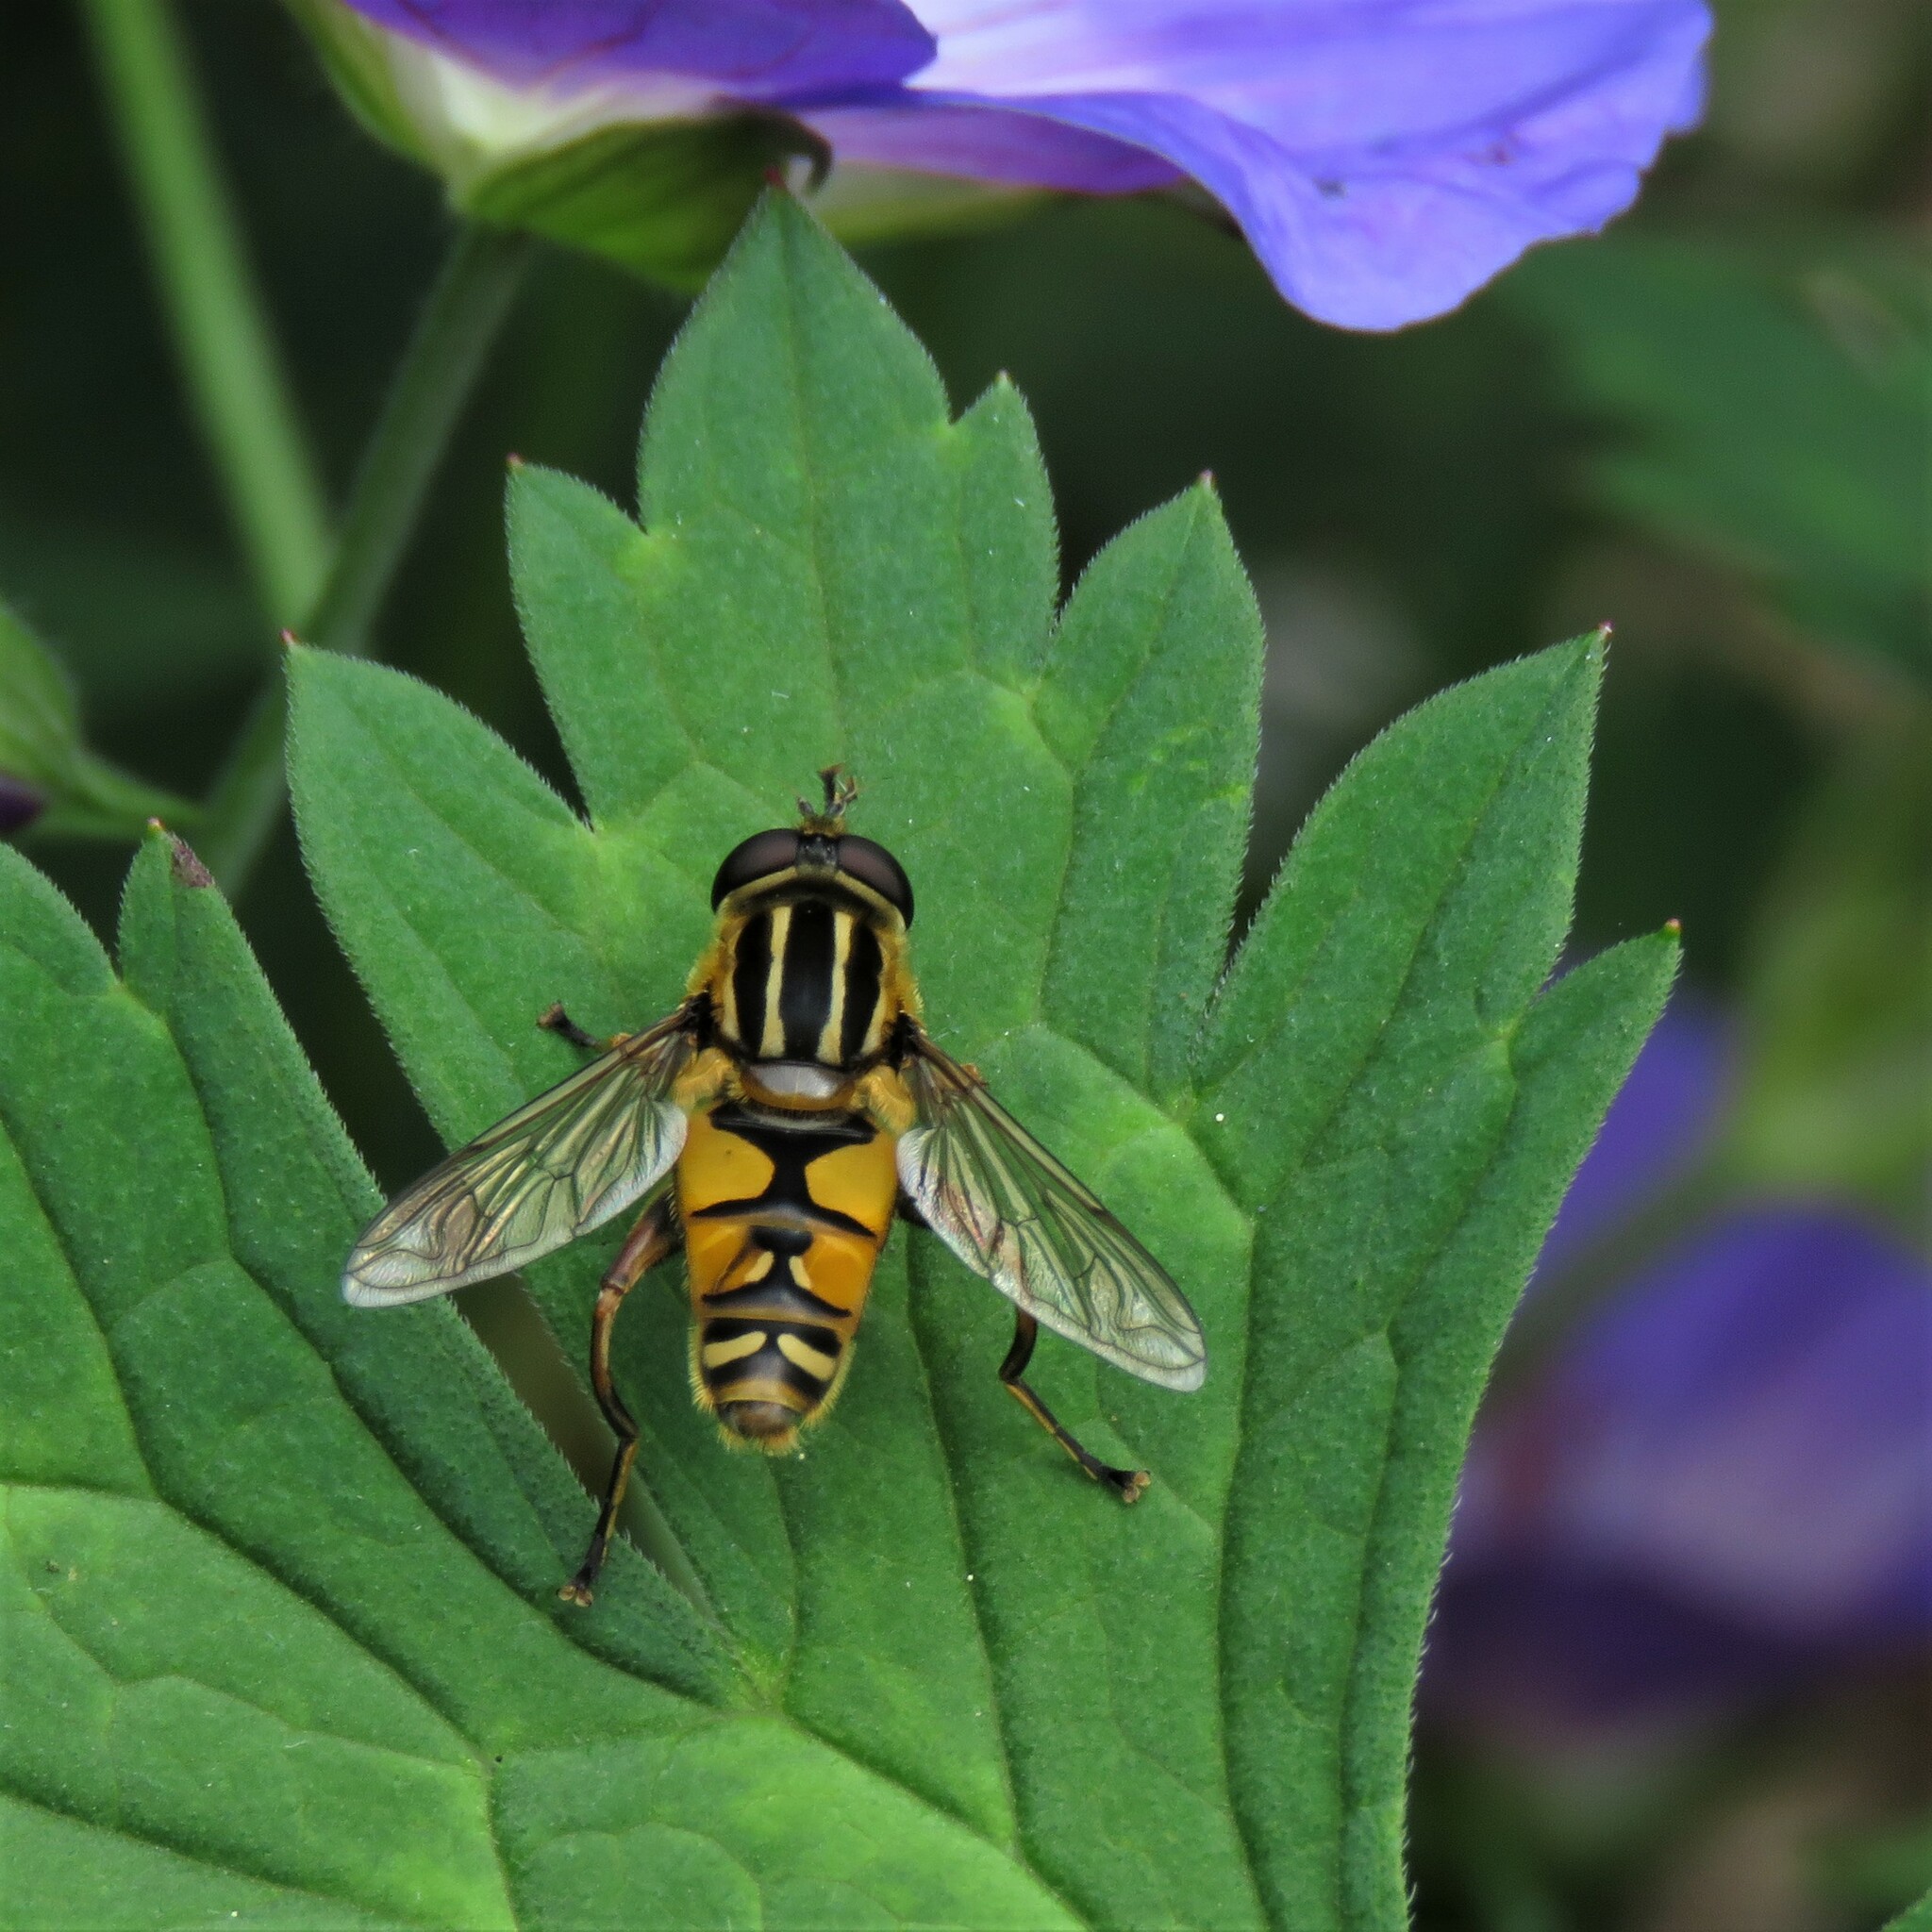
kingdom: Animalia
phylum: Arthropoda
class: Insecta
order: Diptera
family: Syrphidae
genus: Helophilus
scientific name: Helophilus pendulus
